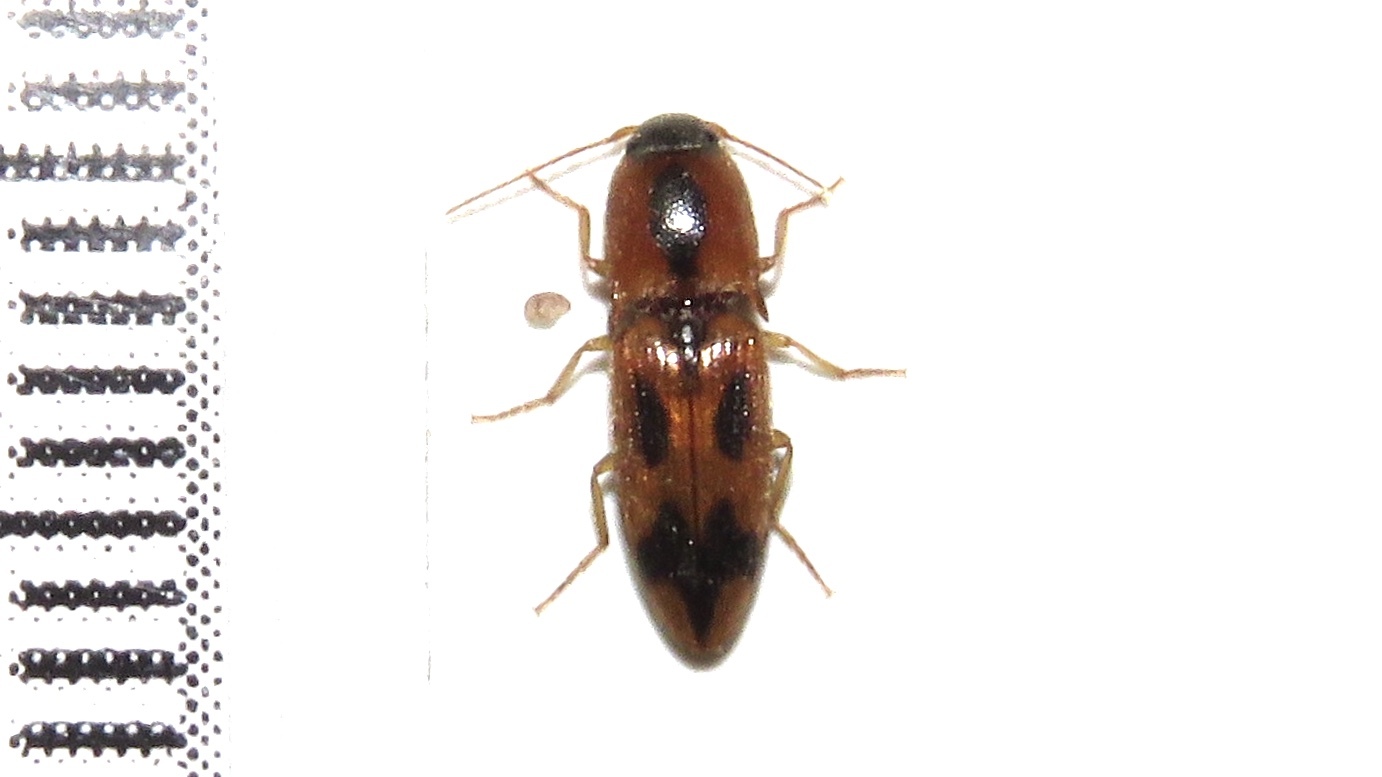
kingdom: Animalia
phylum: Arthropoda
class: Insecta
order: Coleoptera
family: Elateridae
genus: Aeolus
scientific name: Aeolus mellillus
